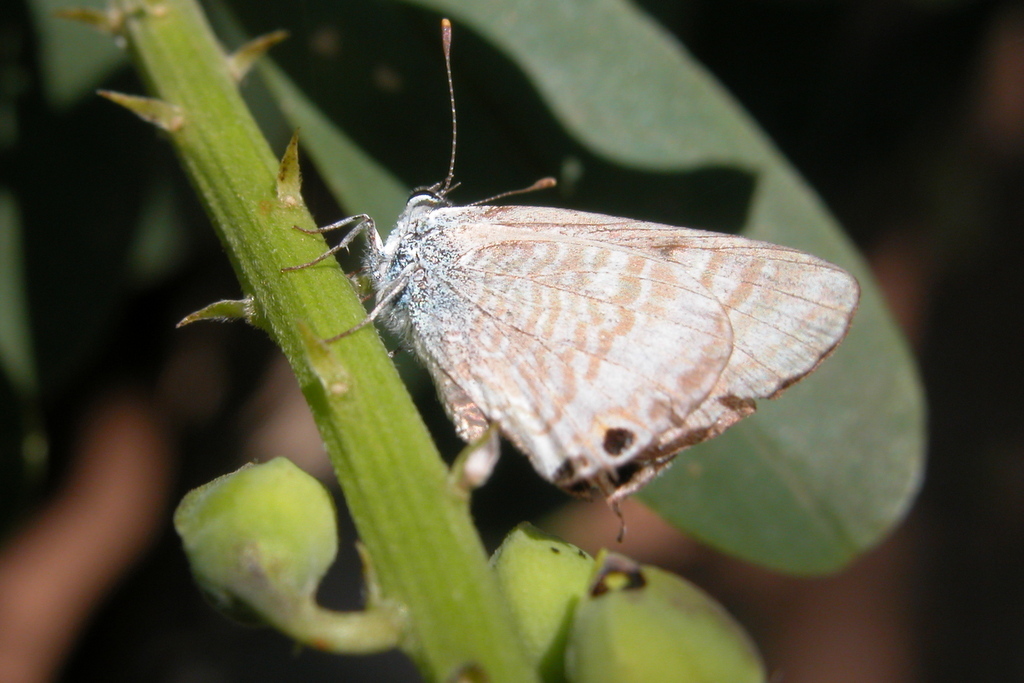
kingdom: Animalia
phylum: Arthropoda
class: Insecta
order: Lepidoptera
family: Lycaenidae
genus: Lampides
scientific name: Lampides boeticus
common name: Long-tailed blue
